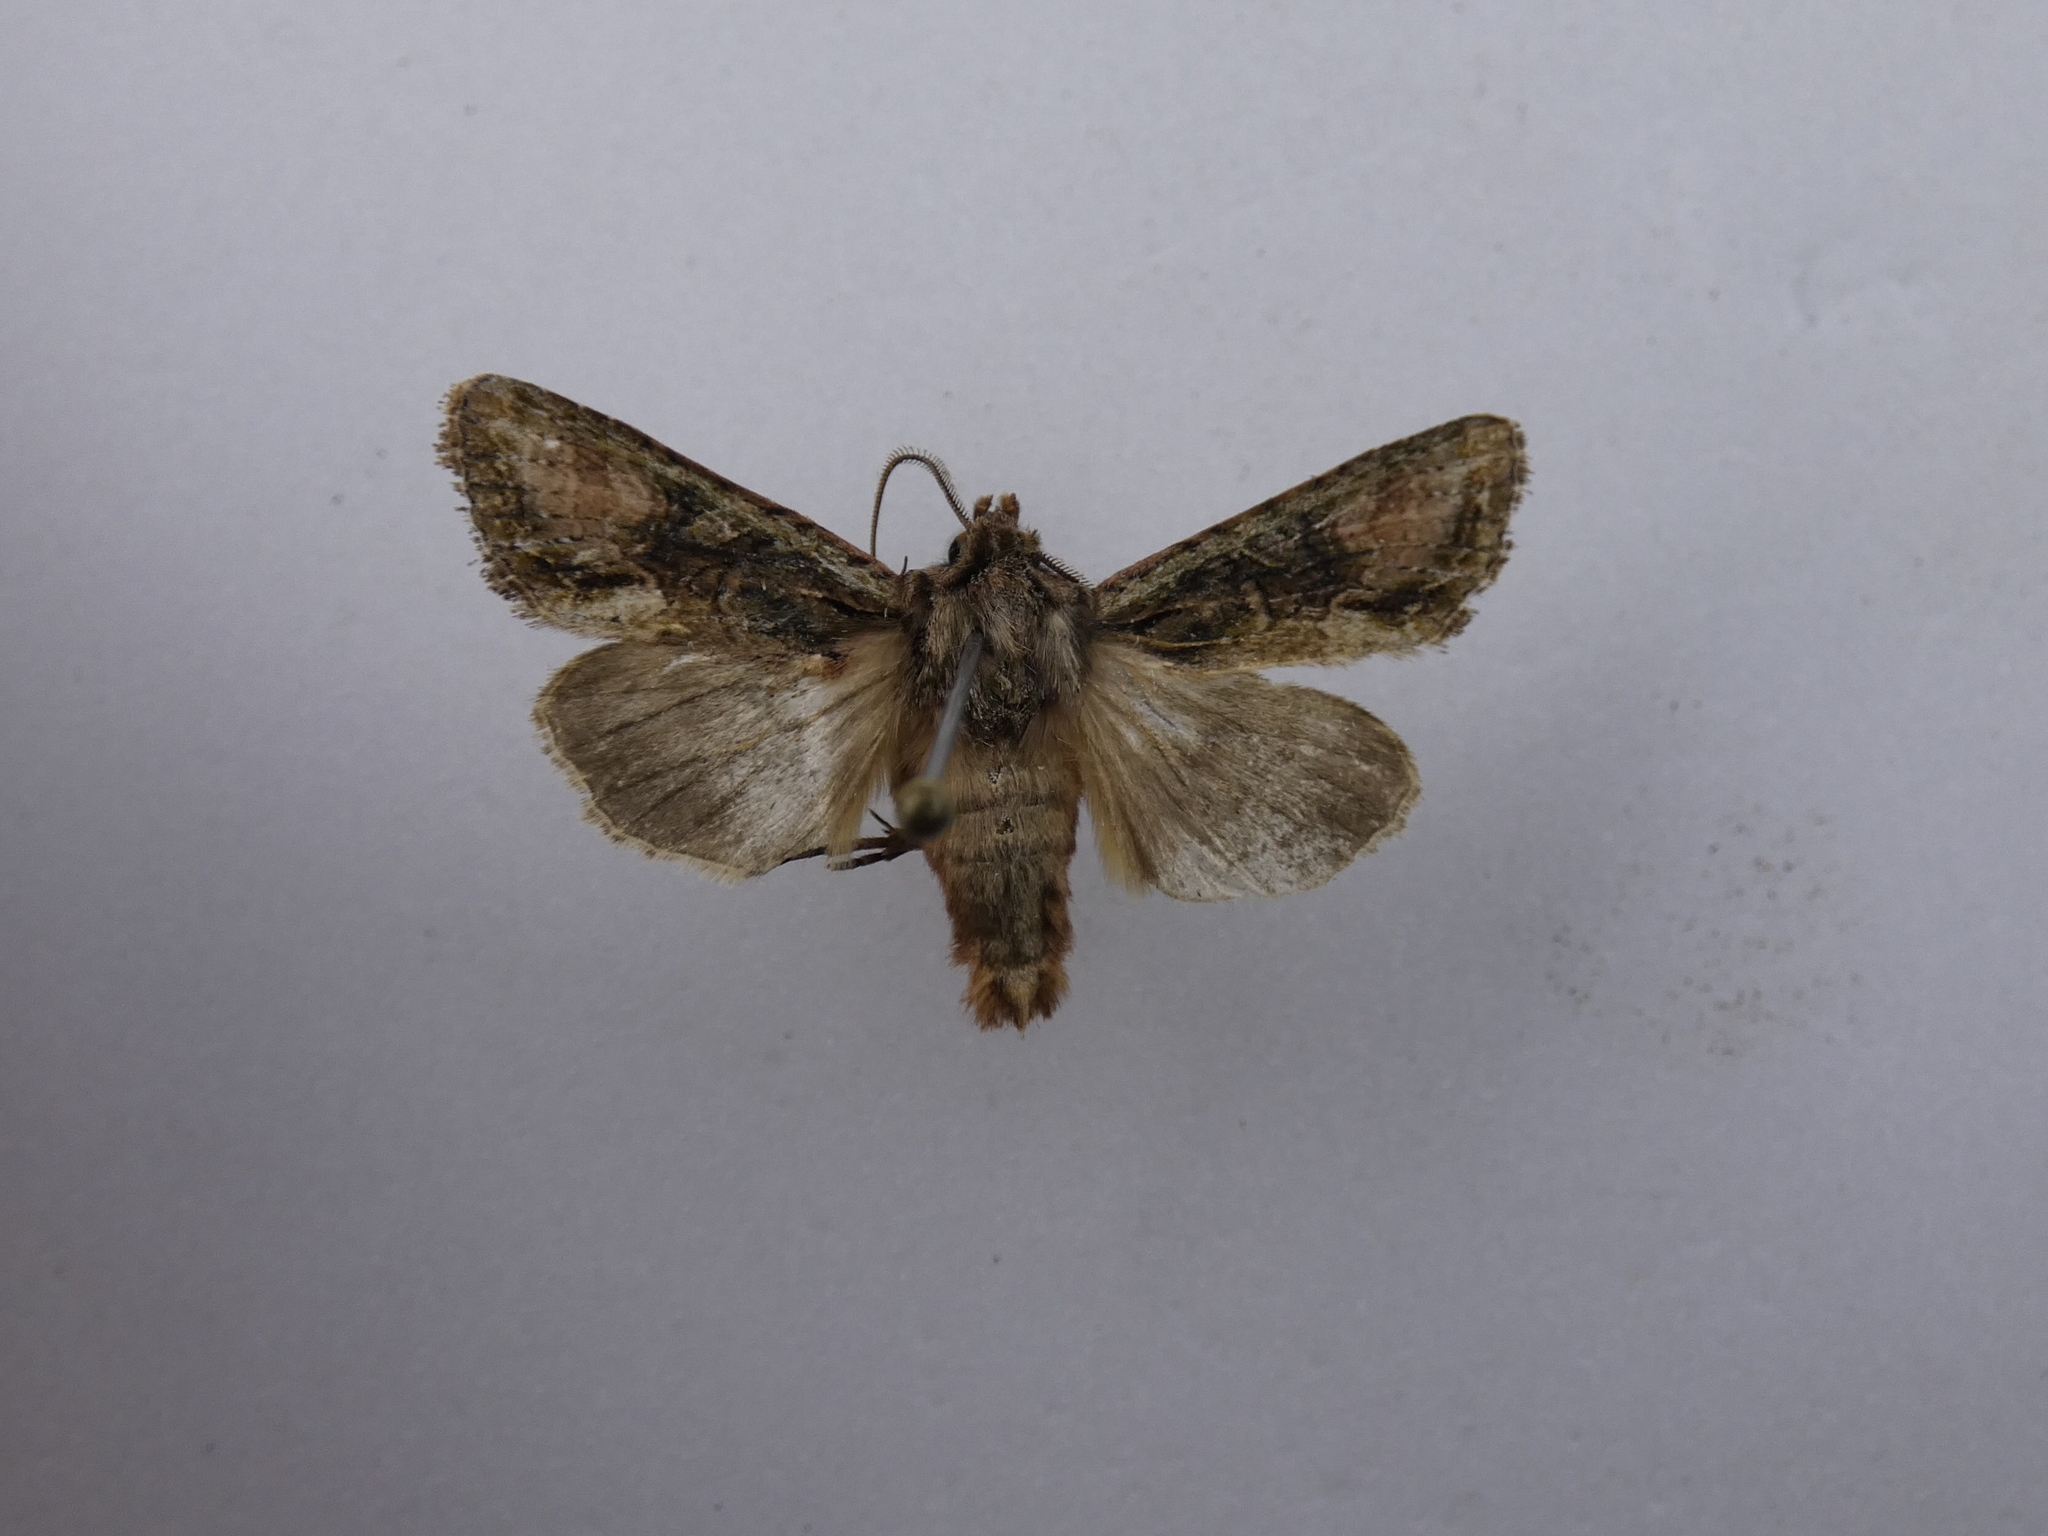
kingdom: Animalia
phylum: Arthropoda
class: Insecta
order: Lepidoptera
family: Noctuidae
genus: Ichneutica
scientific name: Ichneutica mutans
